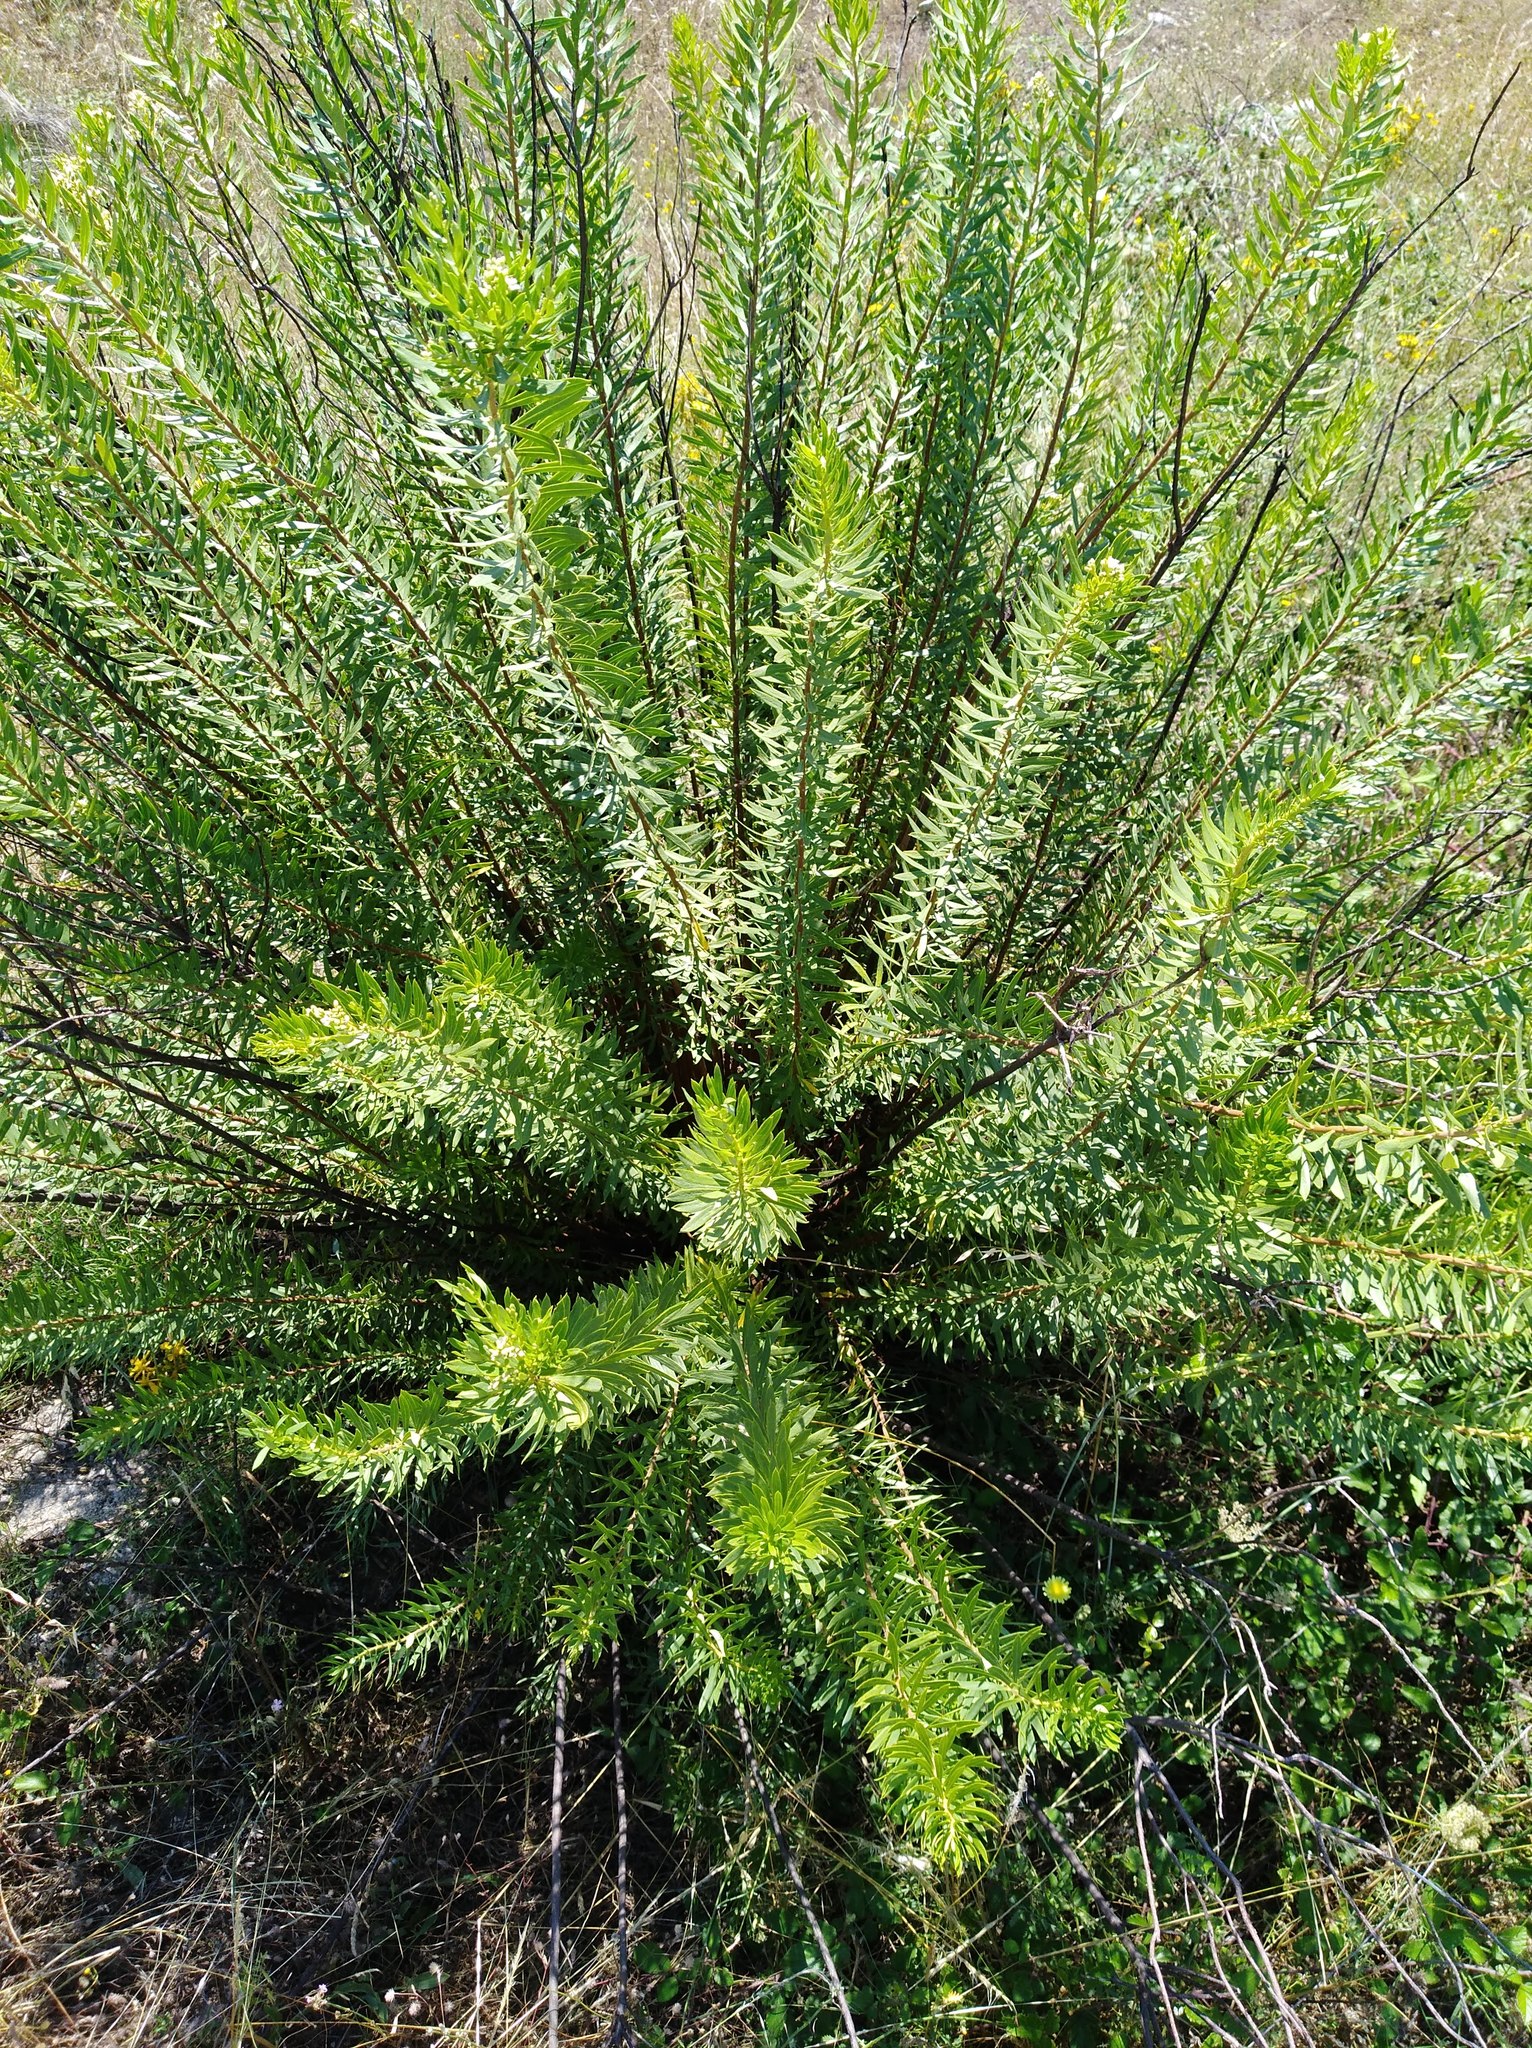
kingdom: Plantae
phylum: Tracheophyta
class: Magnoliopsida
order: Malvales
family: Thymelaeaceae
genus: Daphne
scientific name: Daphne gnidium
